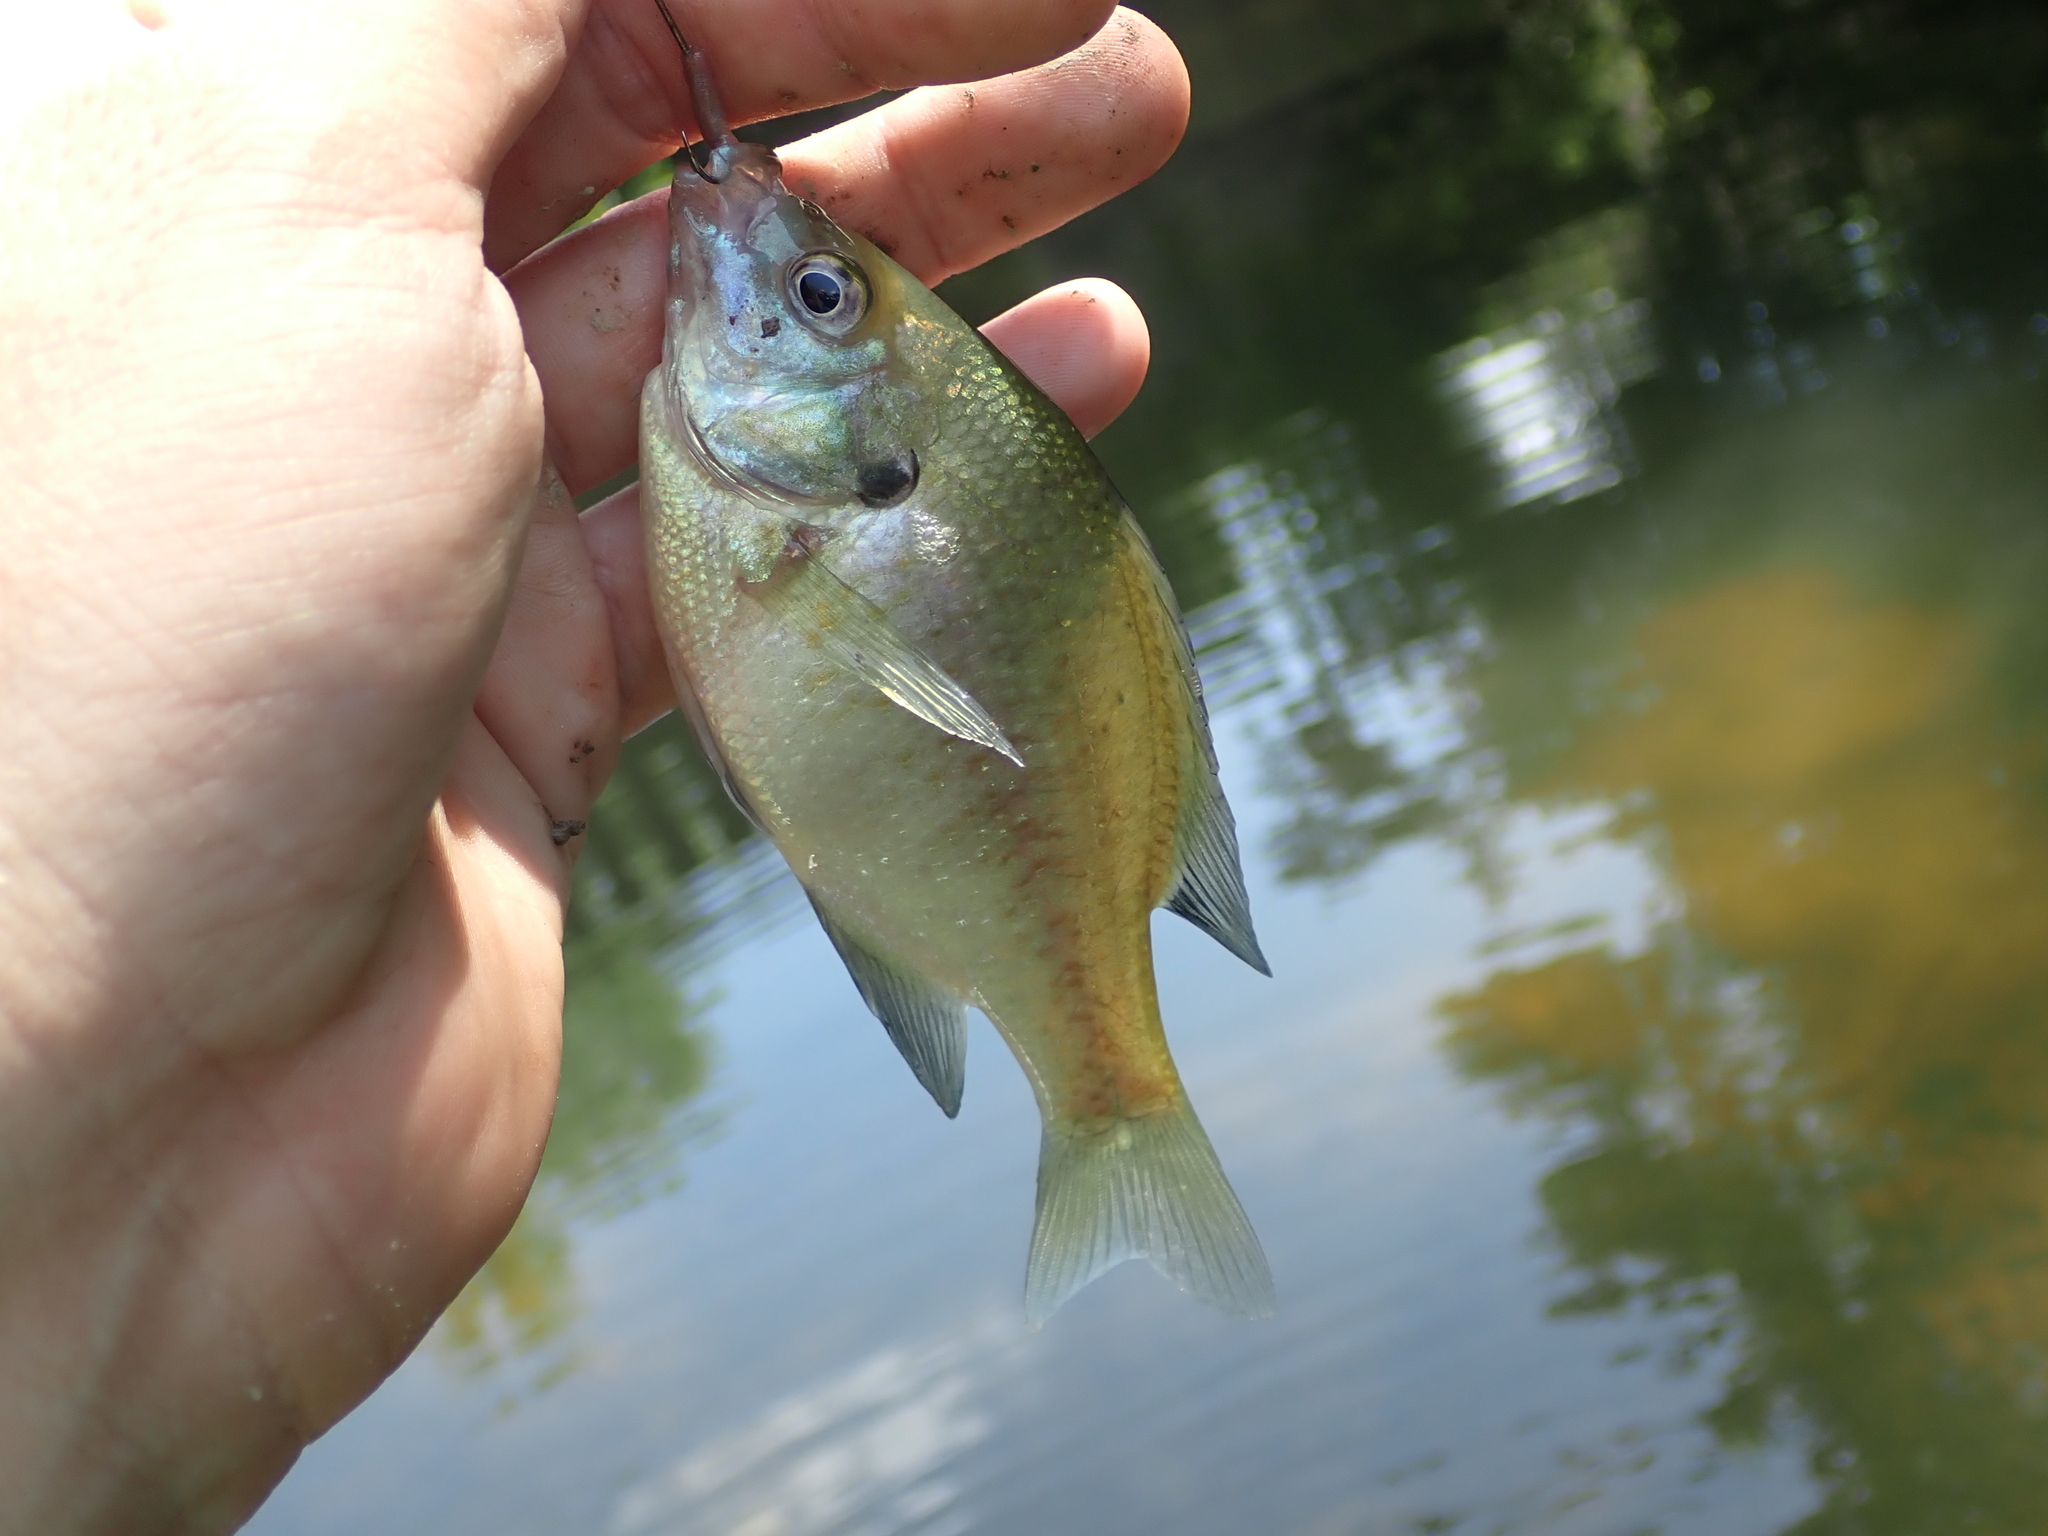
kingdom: Animalia
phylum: Chordata
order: Perciformes
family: Centrarchidae
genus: Lepomis
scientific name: Lepomis macrochirus
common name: Bluegill
